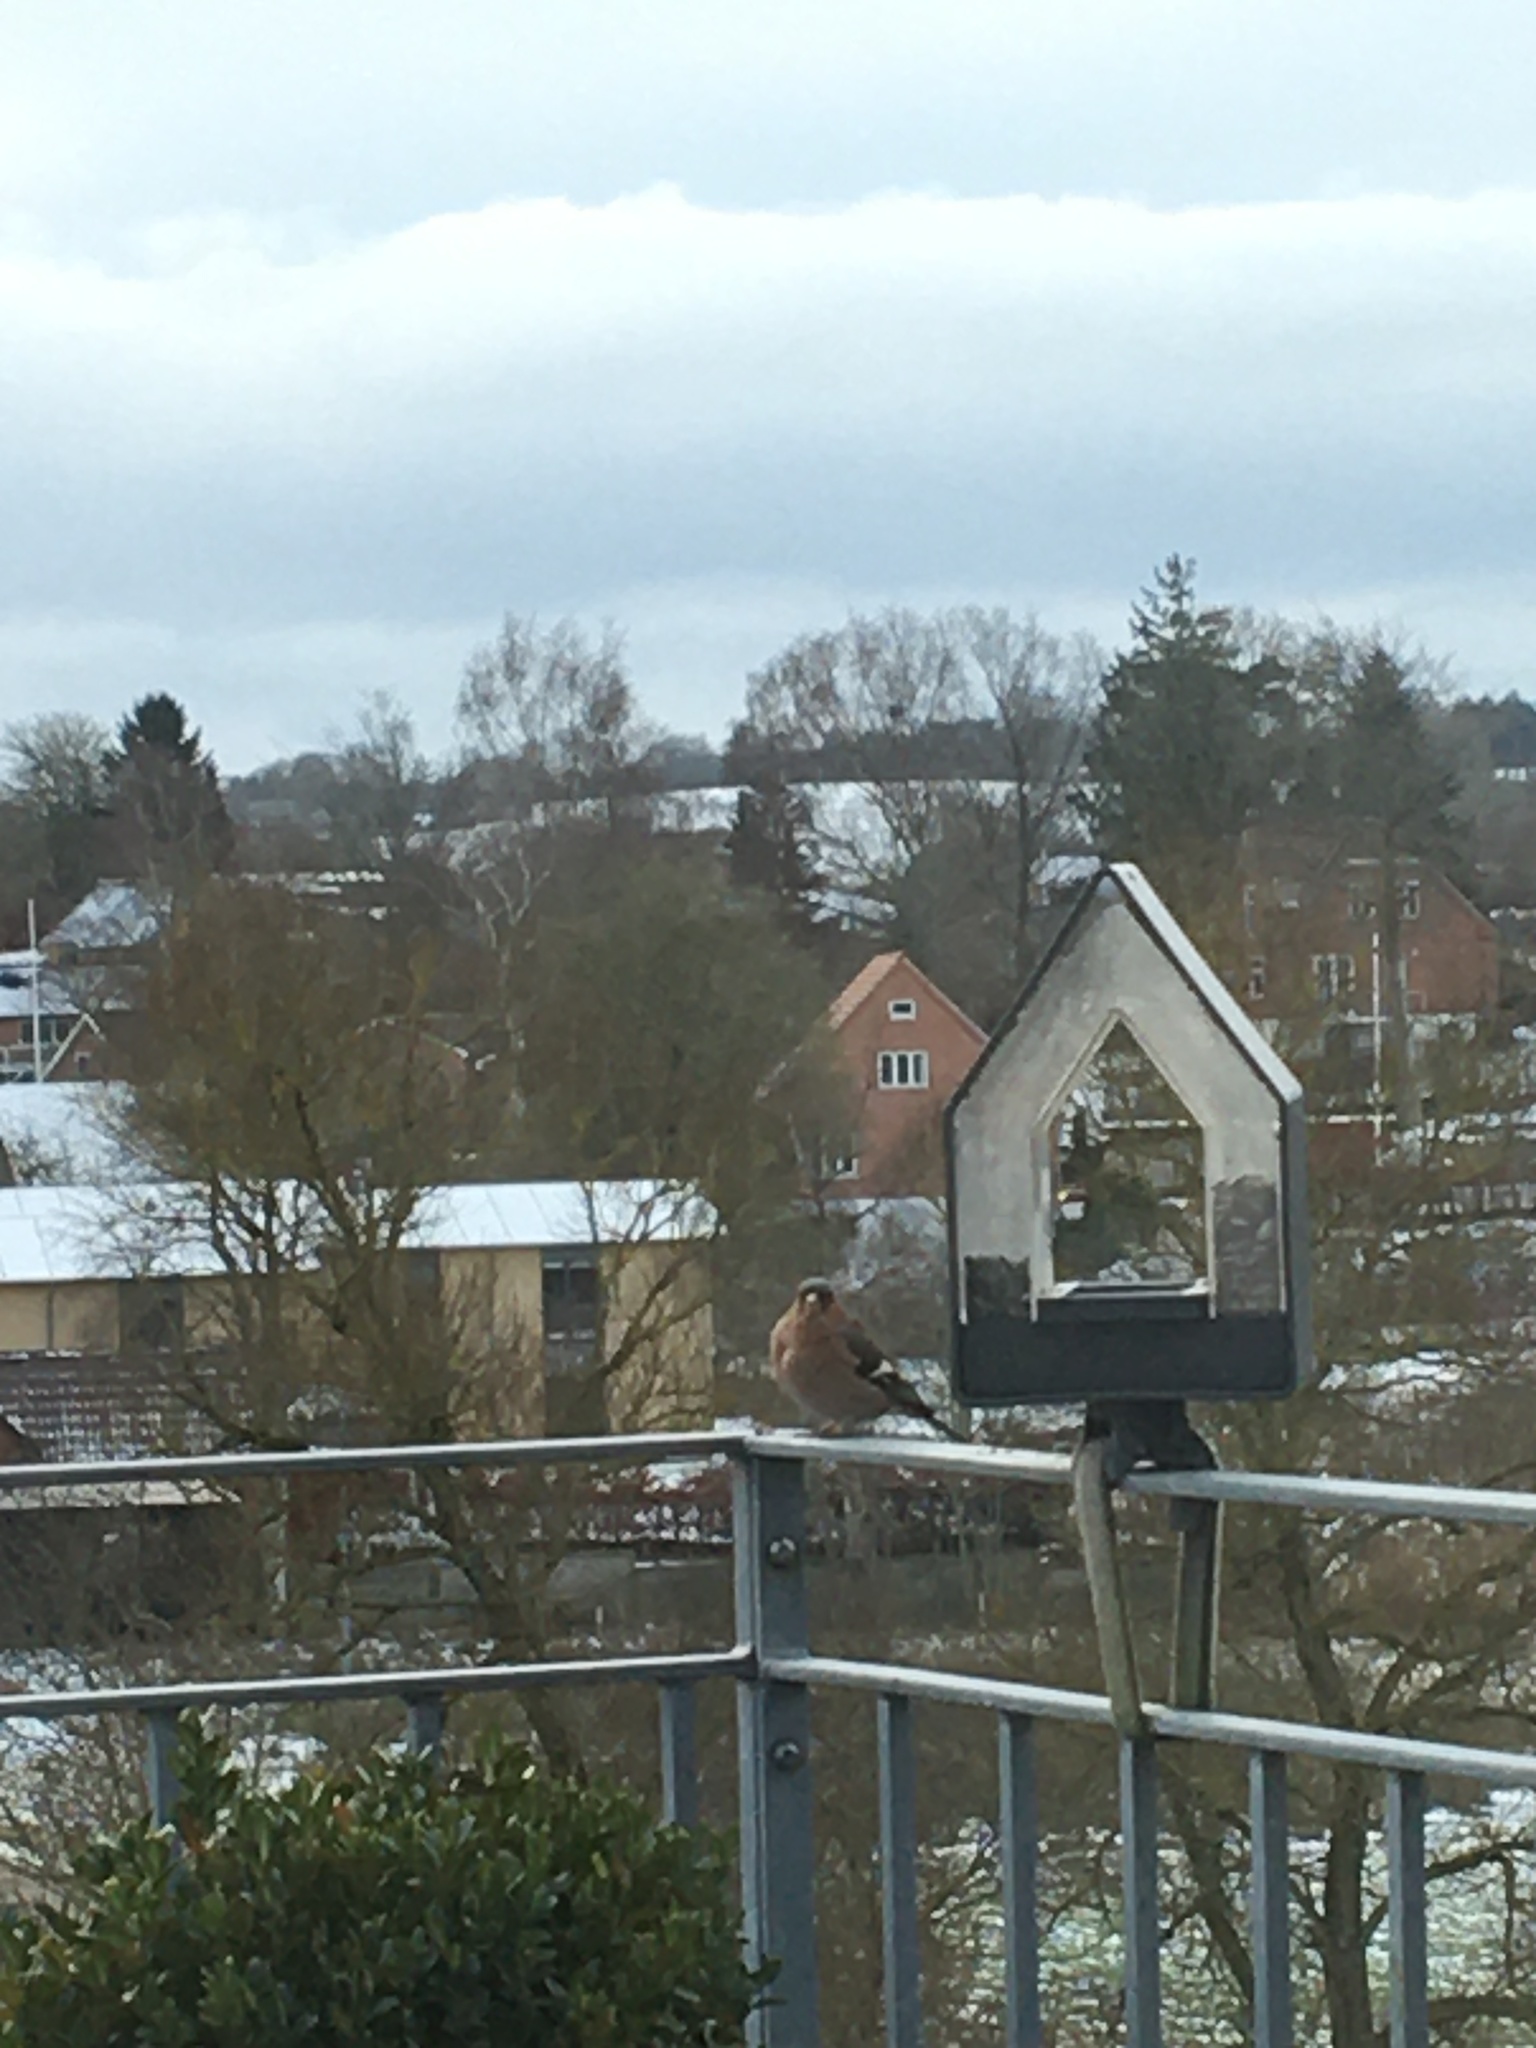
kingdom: Animalia
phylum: Chordata
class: Aves
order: Passeriformes
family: Fringillidae
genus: Fringilla
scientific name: Fringilla coelebs
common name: Common chaffinch
